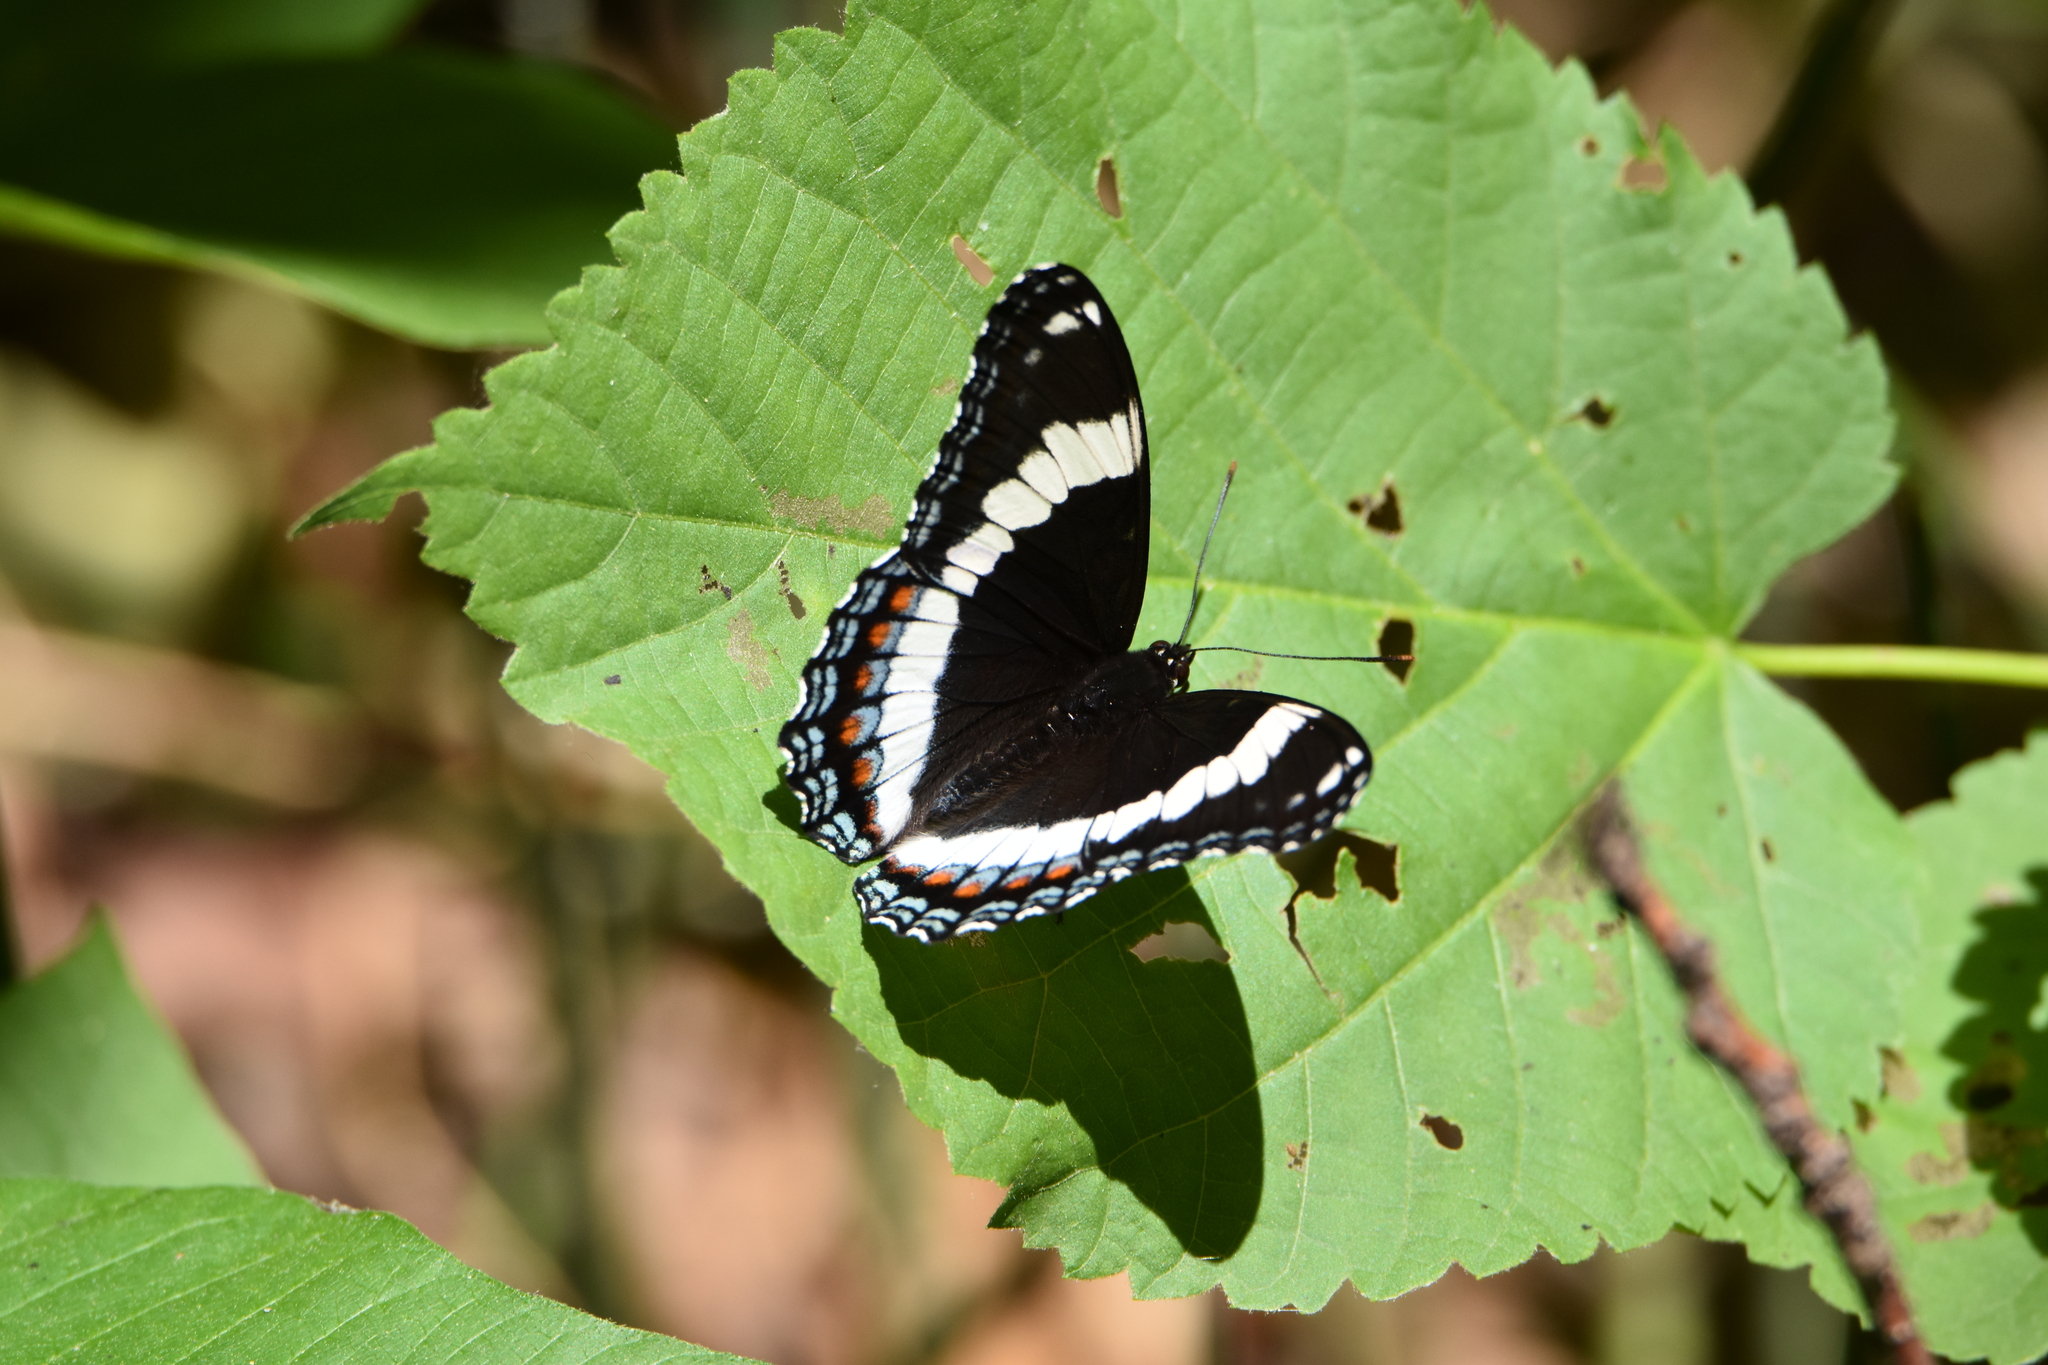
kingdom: Animalia
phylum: Arthropoda
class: Insecta
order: Lepidoptera
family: Nymphalidae
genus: Limenitis
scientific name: Limenitis arthemis
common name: Red-spotted admiral
